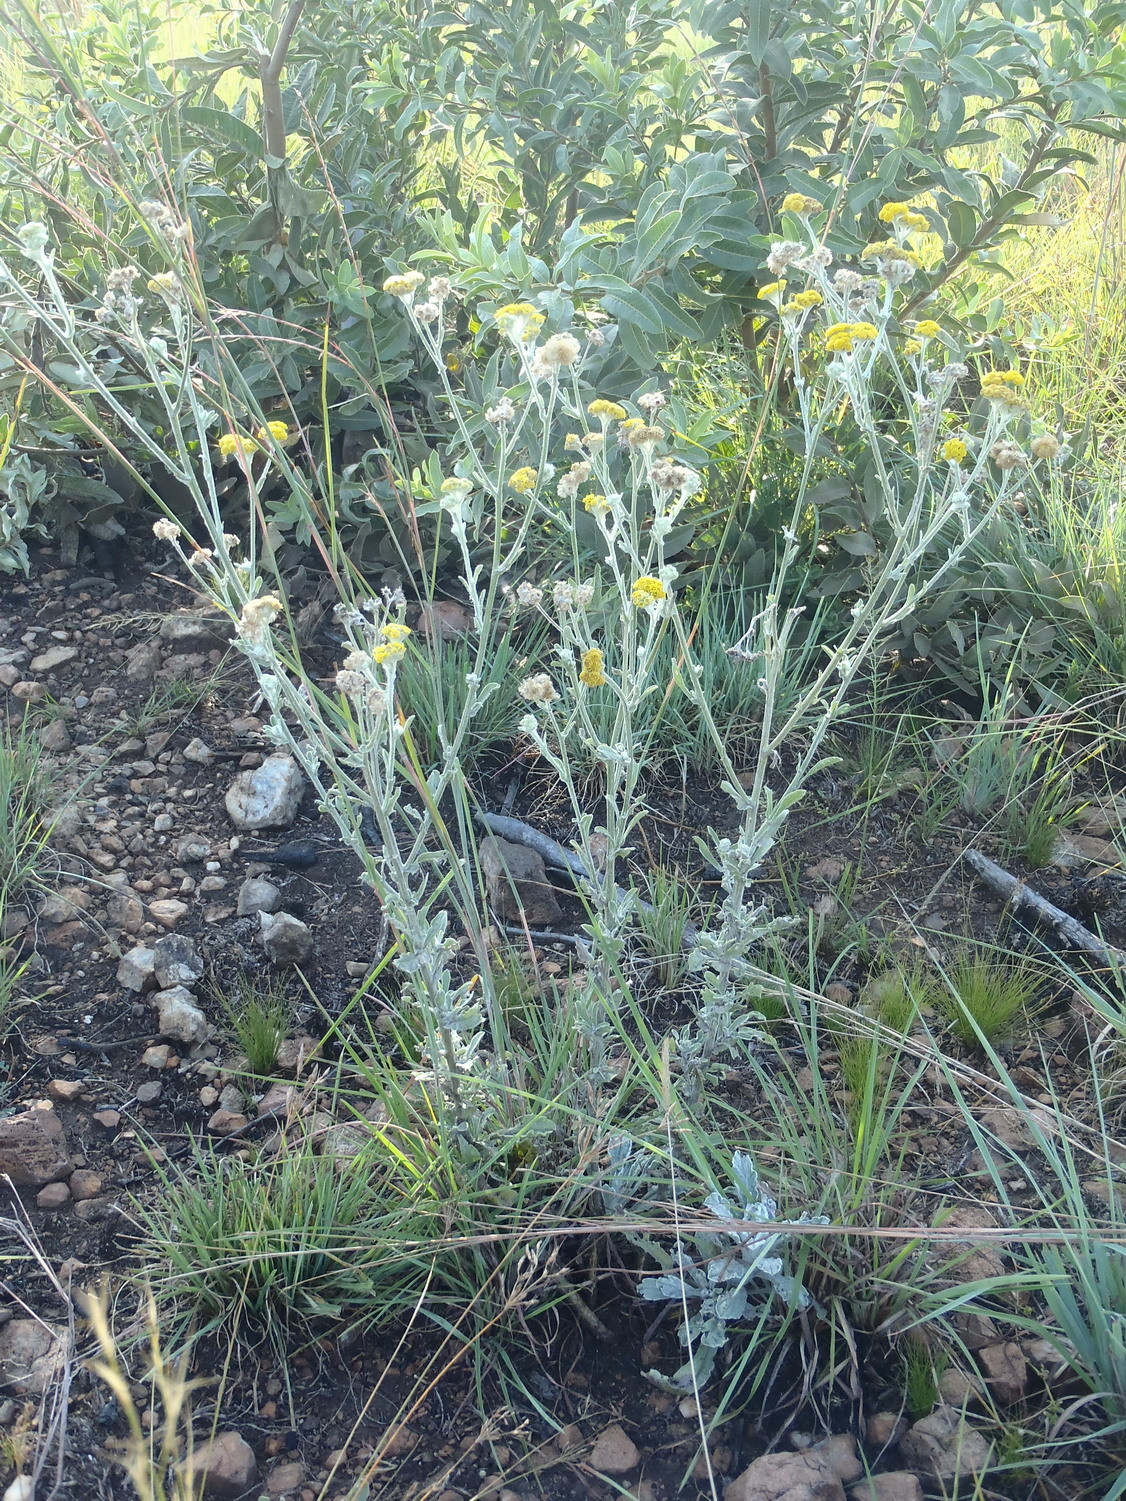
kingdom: Plantae
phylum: Tracheophyta
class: Magnoliopsida
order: Asterales
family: Asteraceae
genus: Nidorella
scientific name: Nidorella hottentotica
